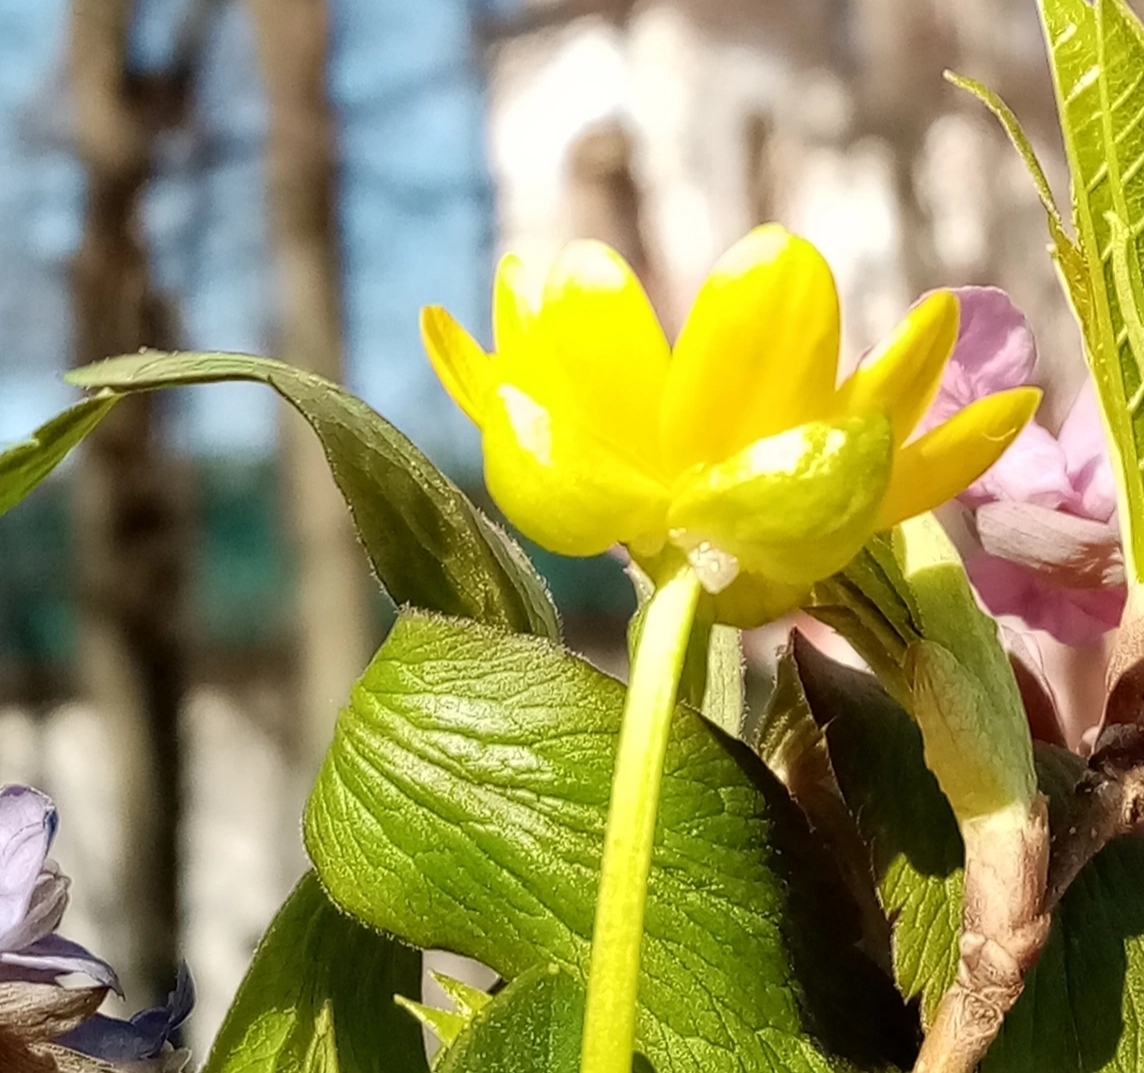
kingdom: Plantae
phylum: Tracheophyta
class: Magnoliopsida
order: Ranunculales
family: Ranunculaceae
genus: Ficaria
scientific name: Ficaria verna
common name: Lesser celandine
